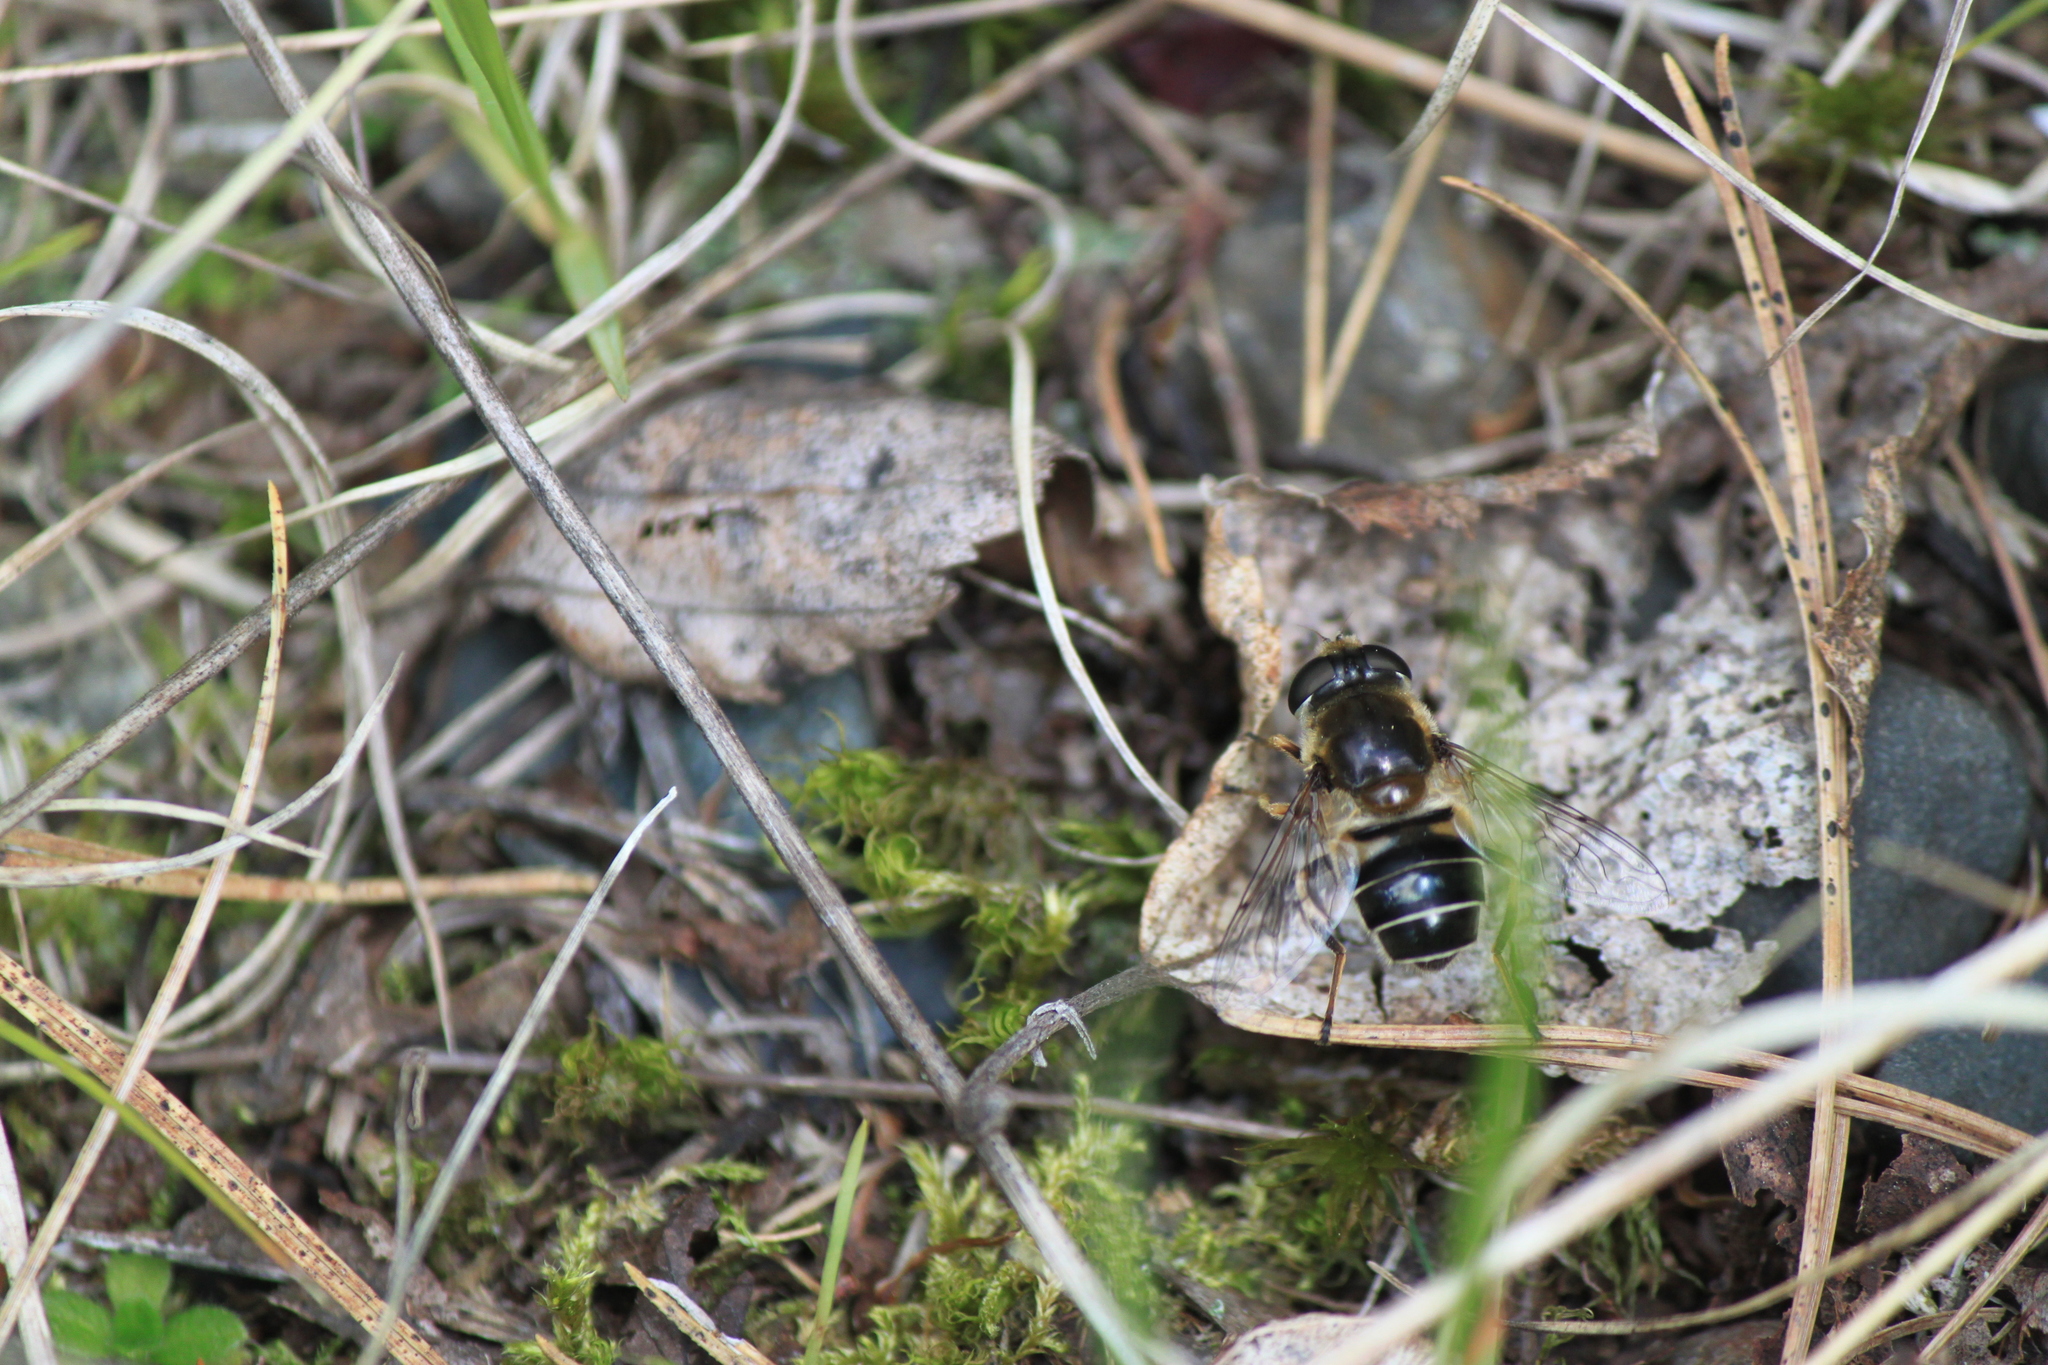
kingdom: Animalia
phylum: Arthropoda
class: Insecta
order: Diptera
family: Syrphidae
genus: Eristalis
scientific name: Eristalis obscura
